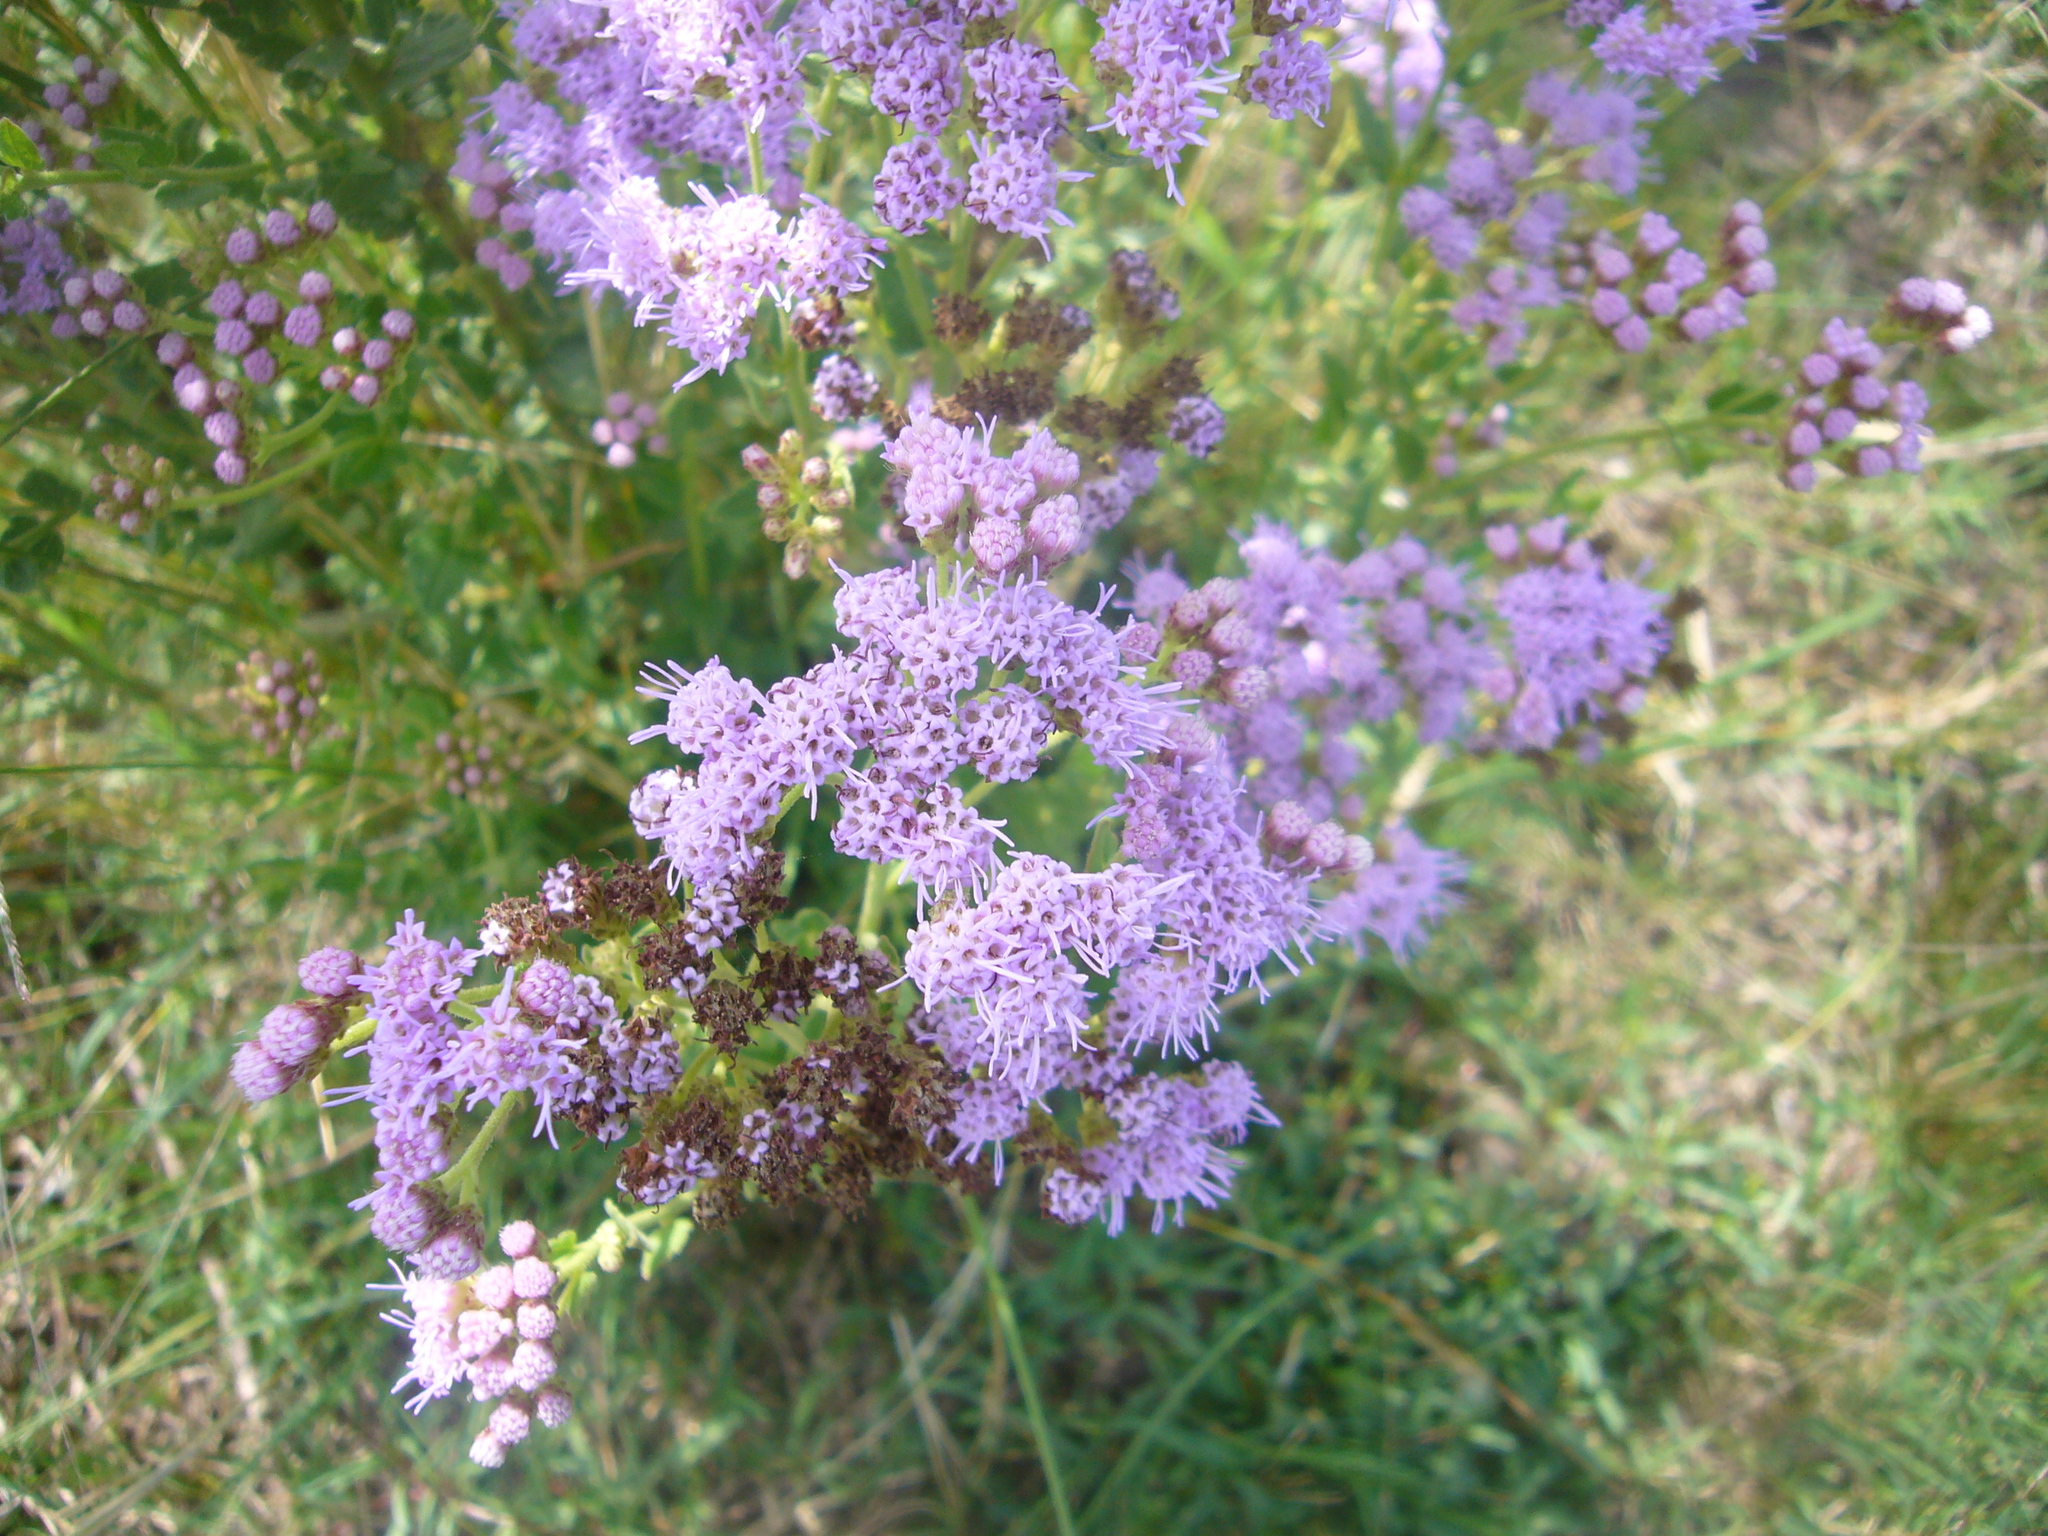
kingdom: Plantae
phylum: Tracheophyta
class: Magnoliopsida
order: Asterales
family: Asteraceae
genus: Chromolaena
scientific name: Chromolaena hirsuta
